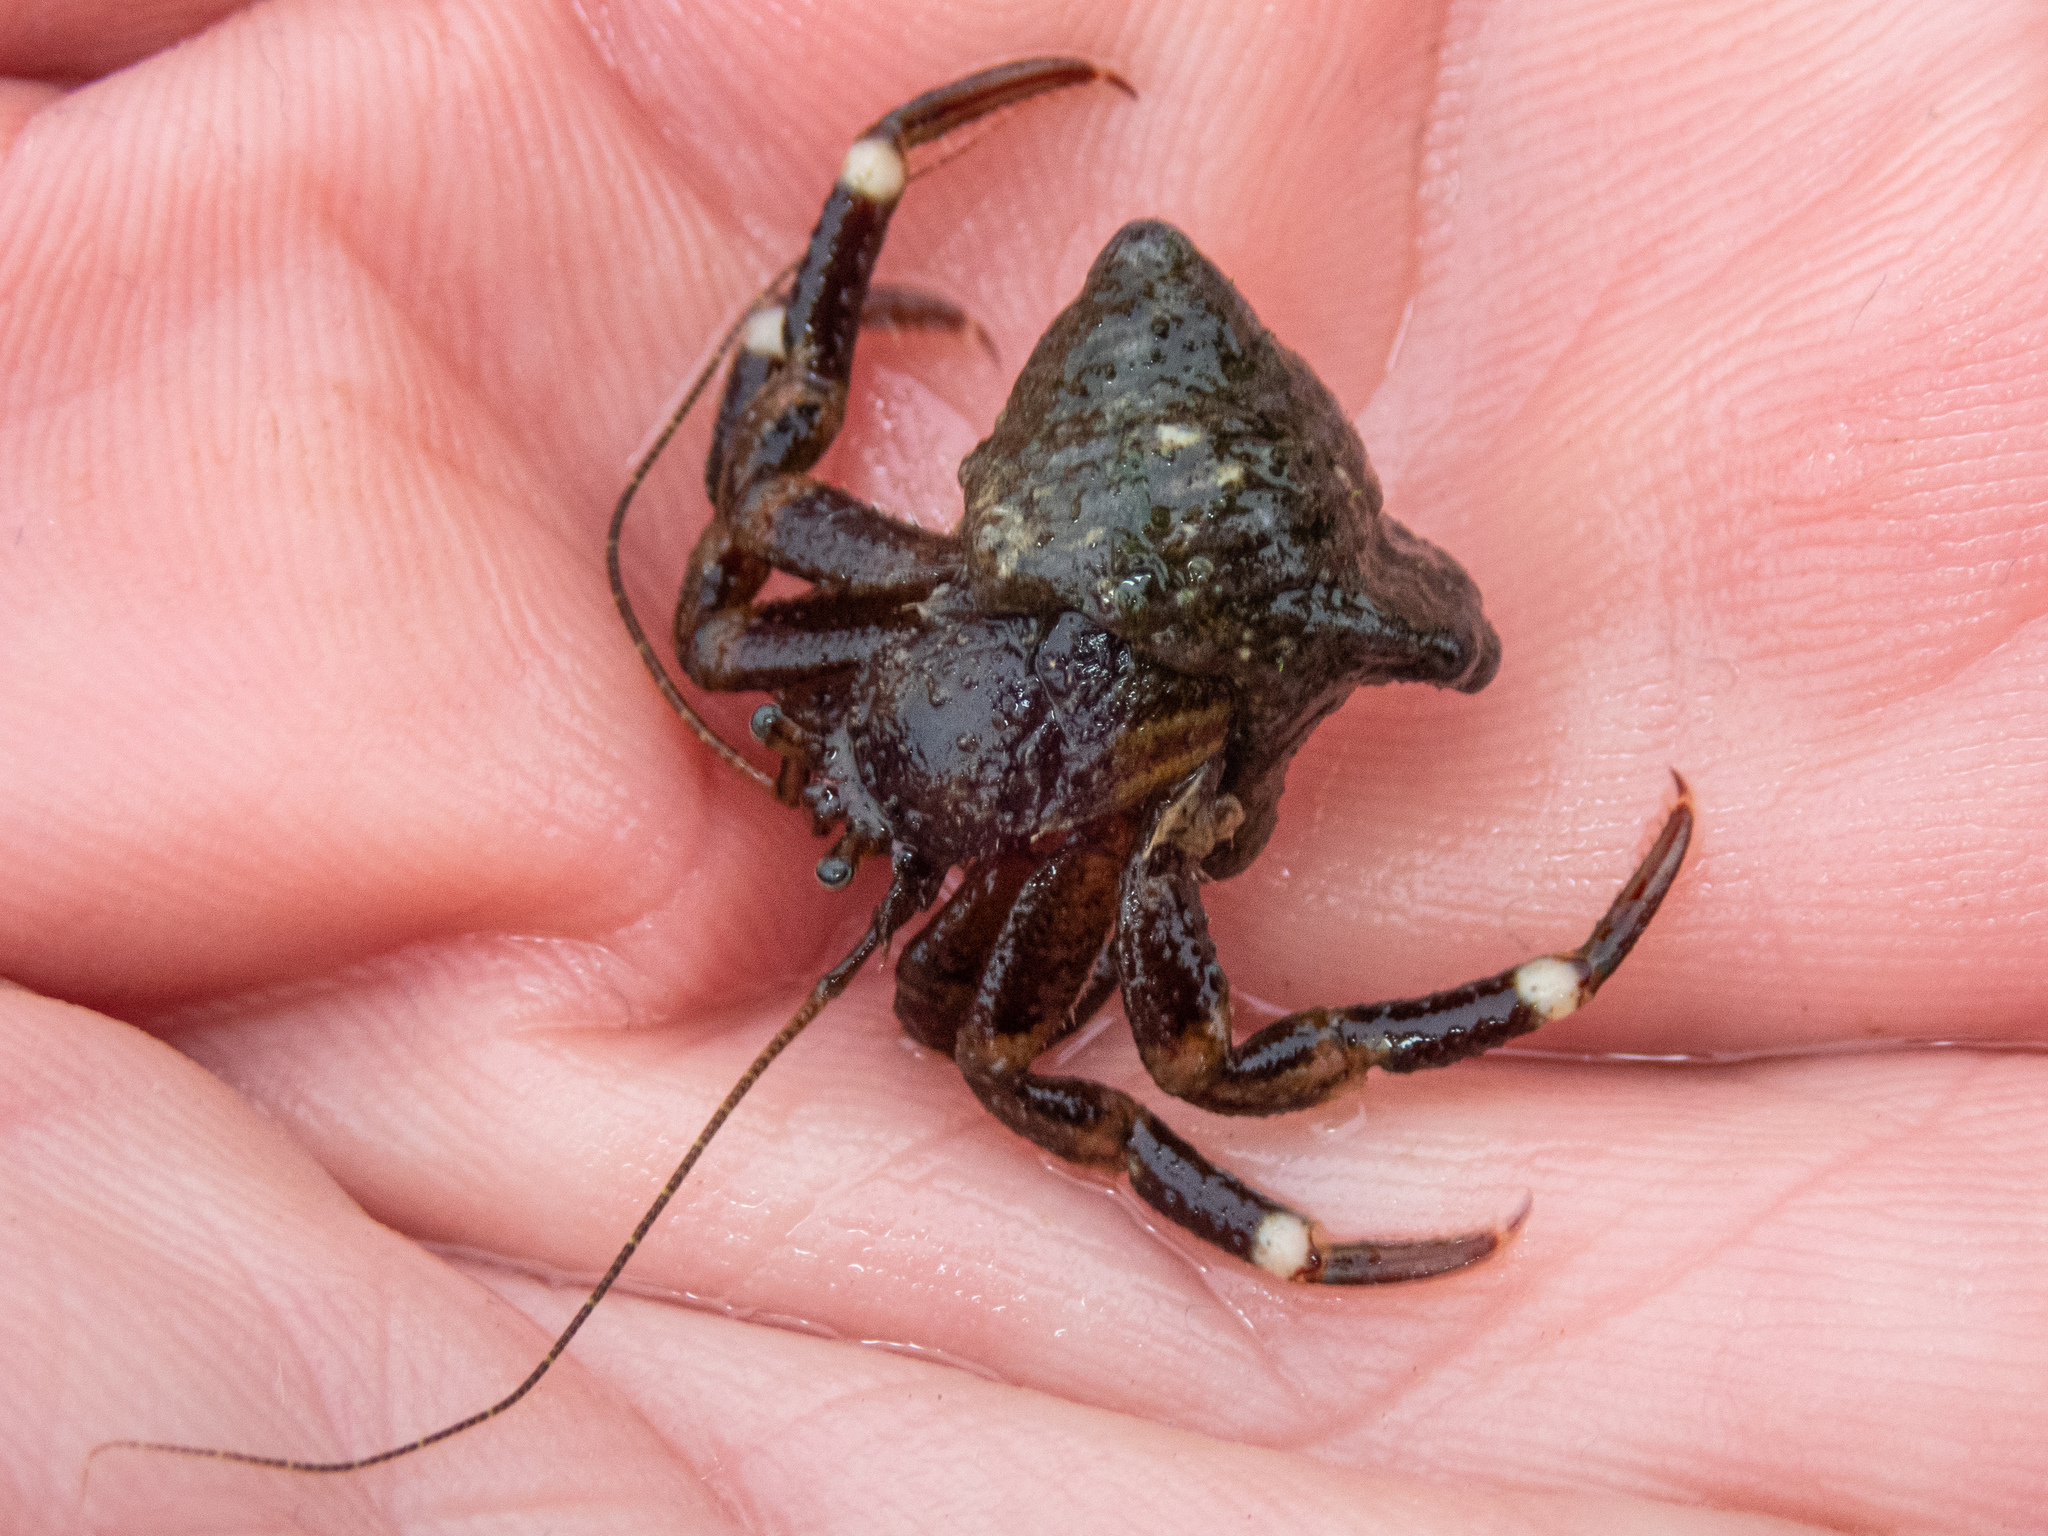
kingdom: Animalia
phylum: Arthropoda
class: Malacostraca
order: Decapoda
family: Paguridae
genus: Pagurus
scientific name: Pagurus hirsutiusculus
